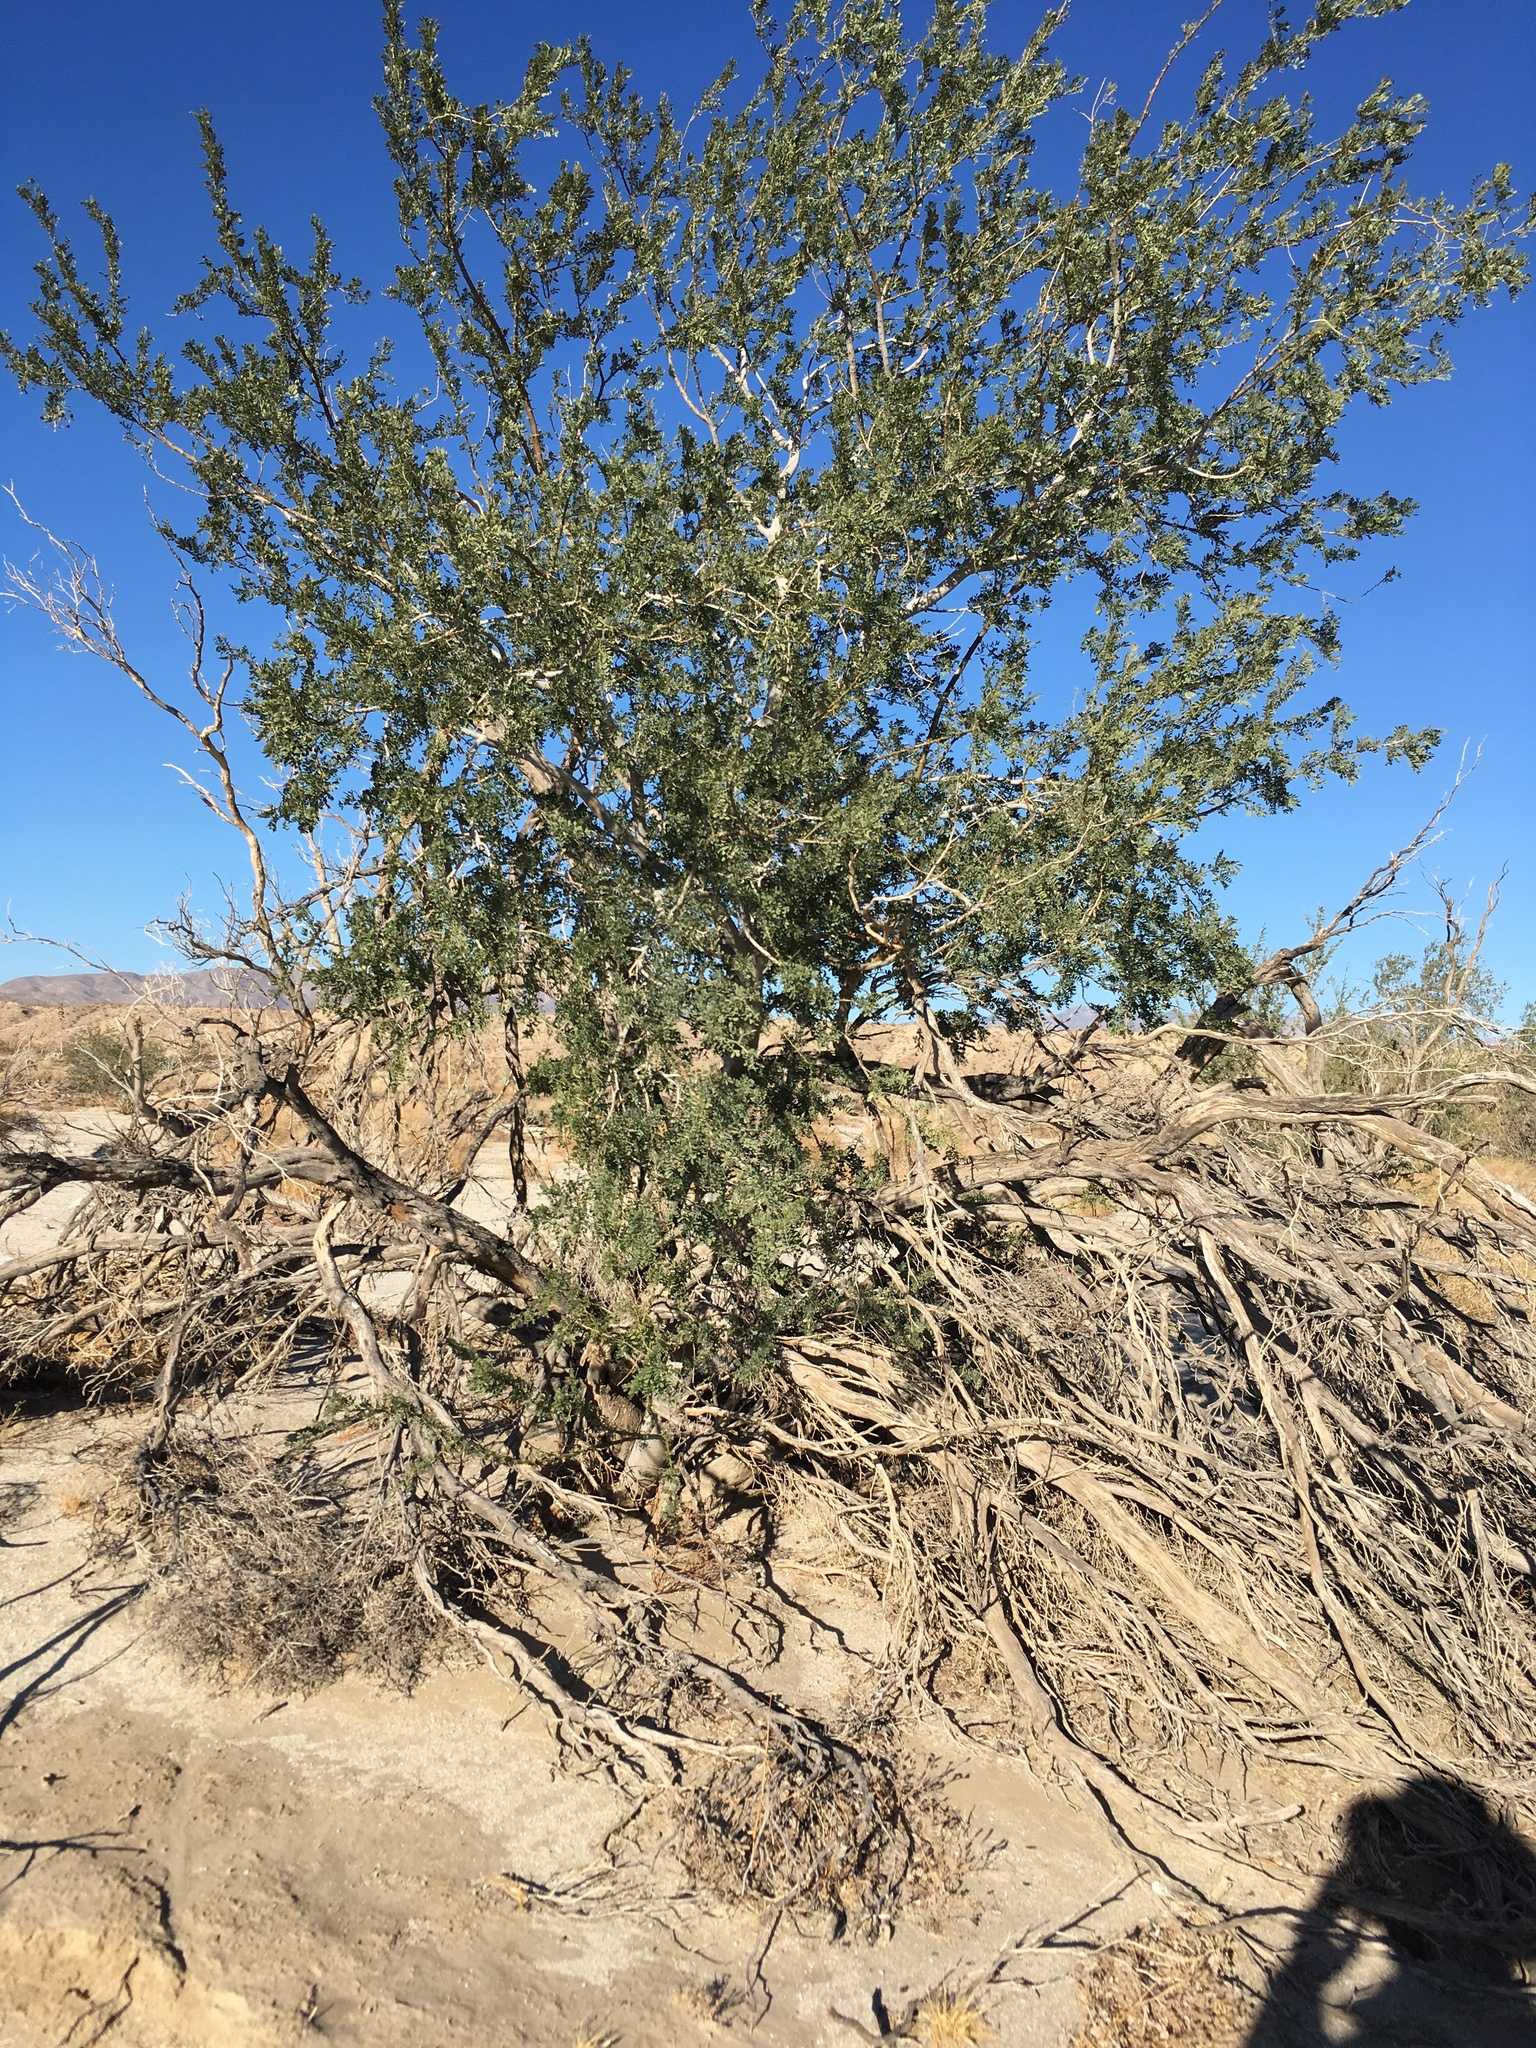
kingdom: Plantae
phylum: Tracheophyta
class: Magnoliopsida
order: Fabales
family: Fabaceae
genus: Olneya
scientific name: Olneya tesota
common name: Desert ironwood
